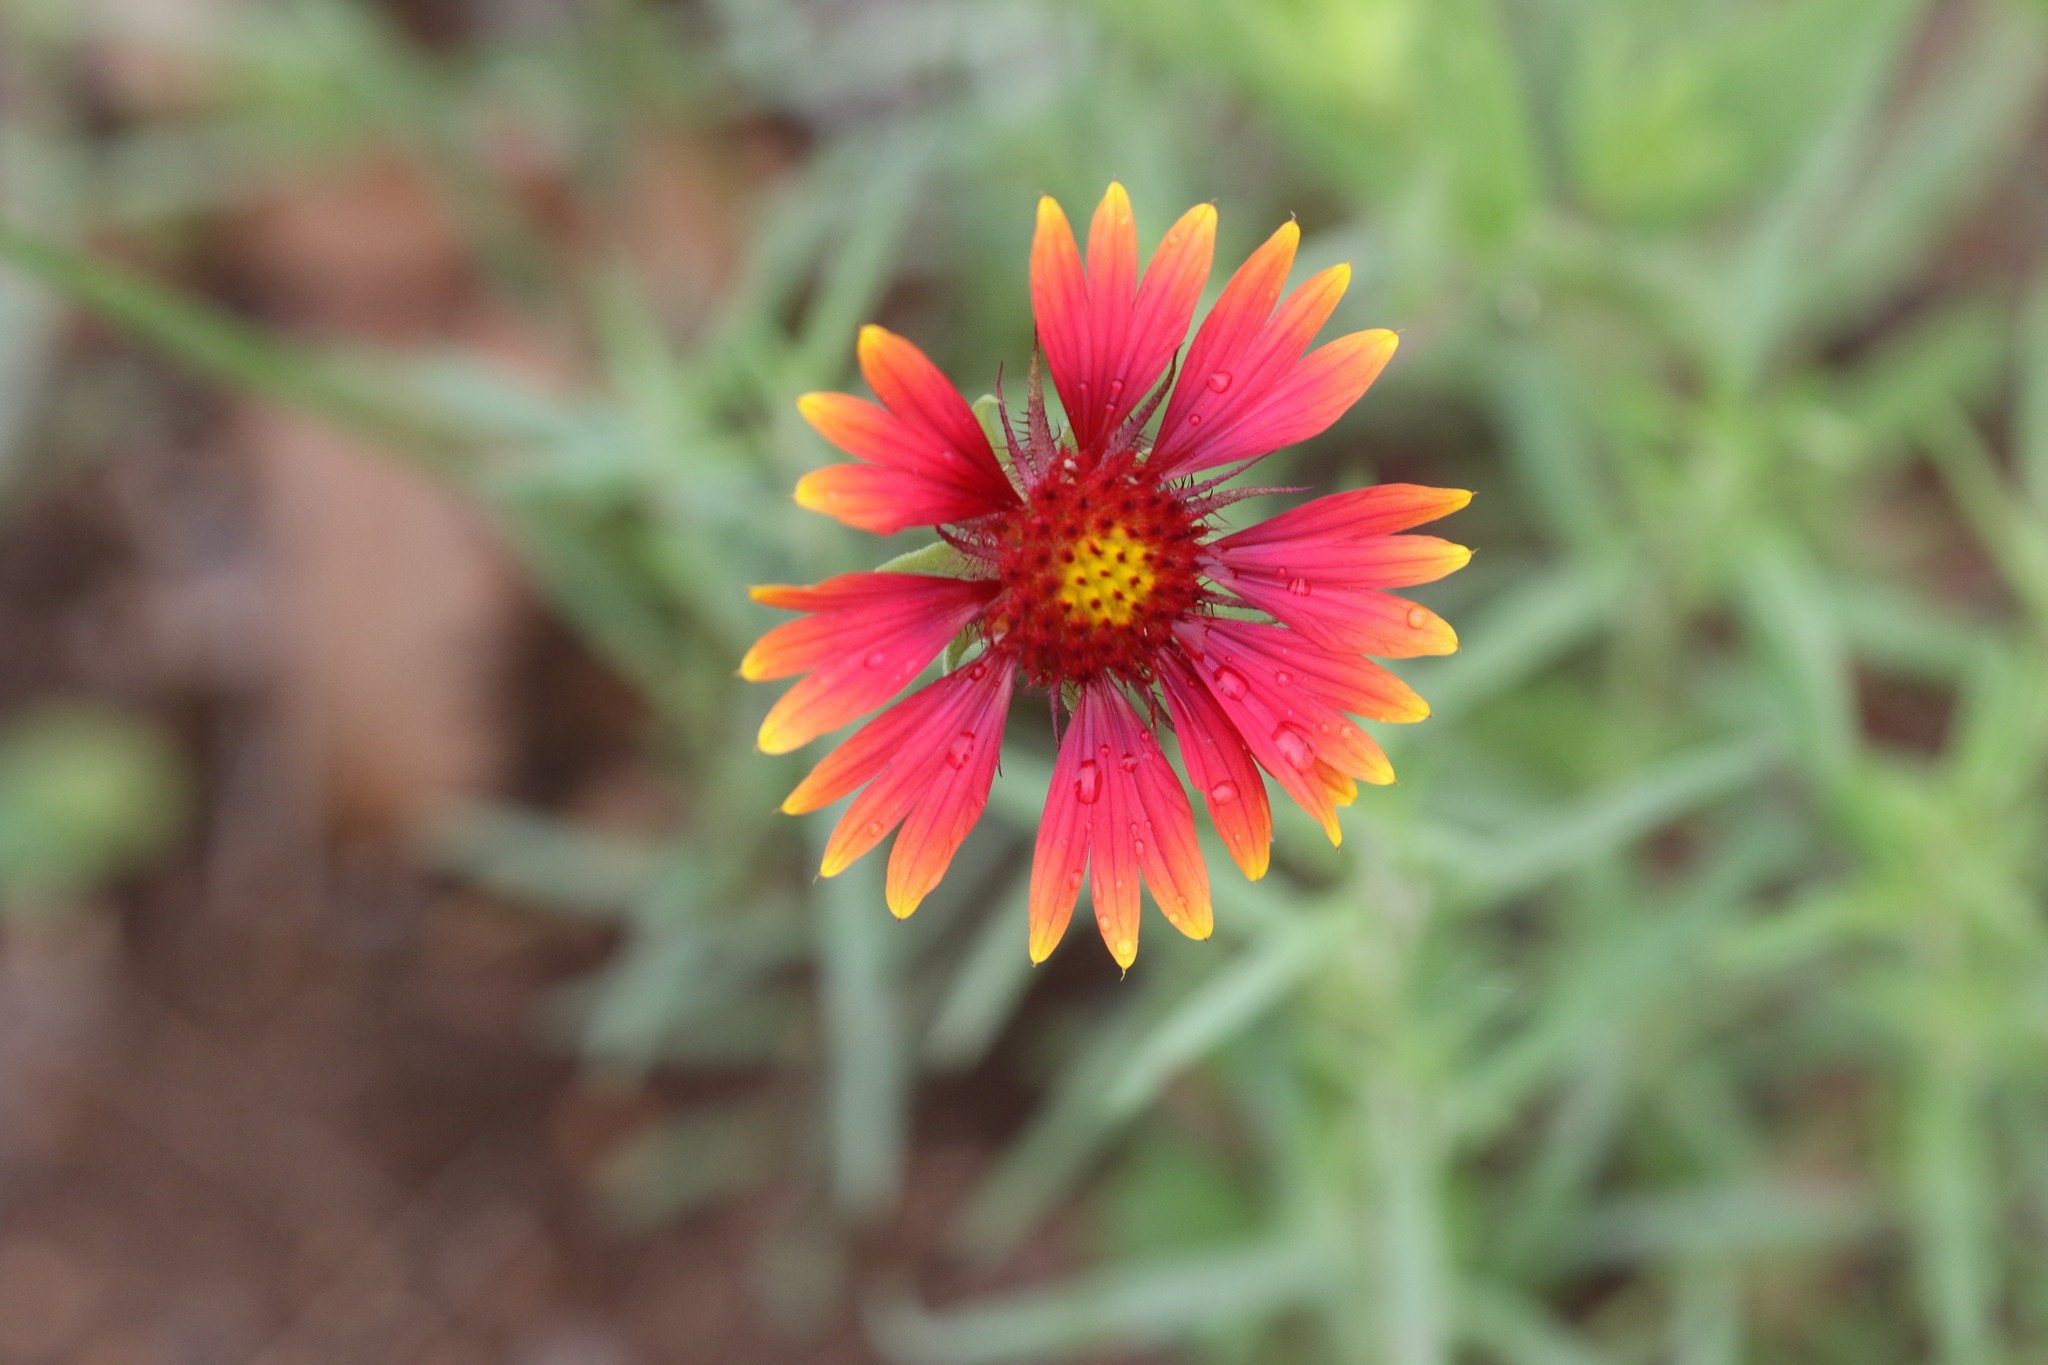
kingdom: Plantae
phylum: Tracheophyta
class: Magnoliopsida
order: Asterales
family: Asteraceae
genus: Gaillardia
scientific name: Gaillardia pulchella
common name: Firewheel
